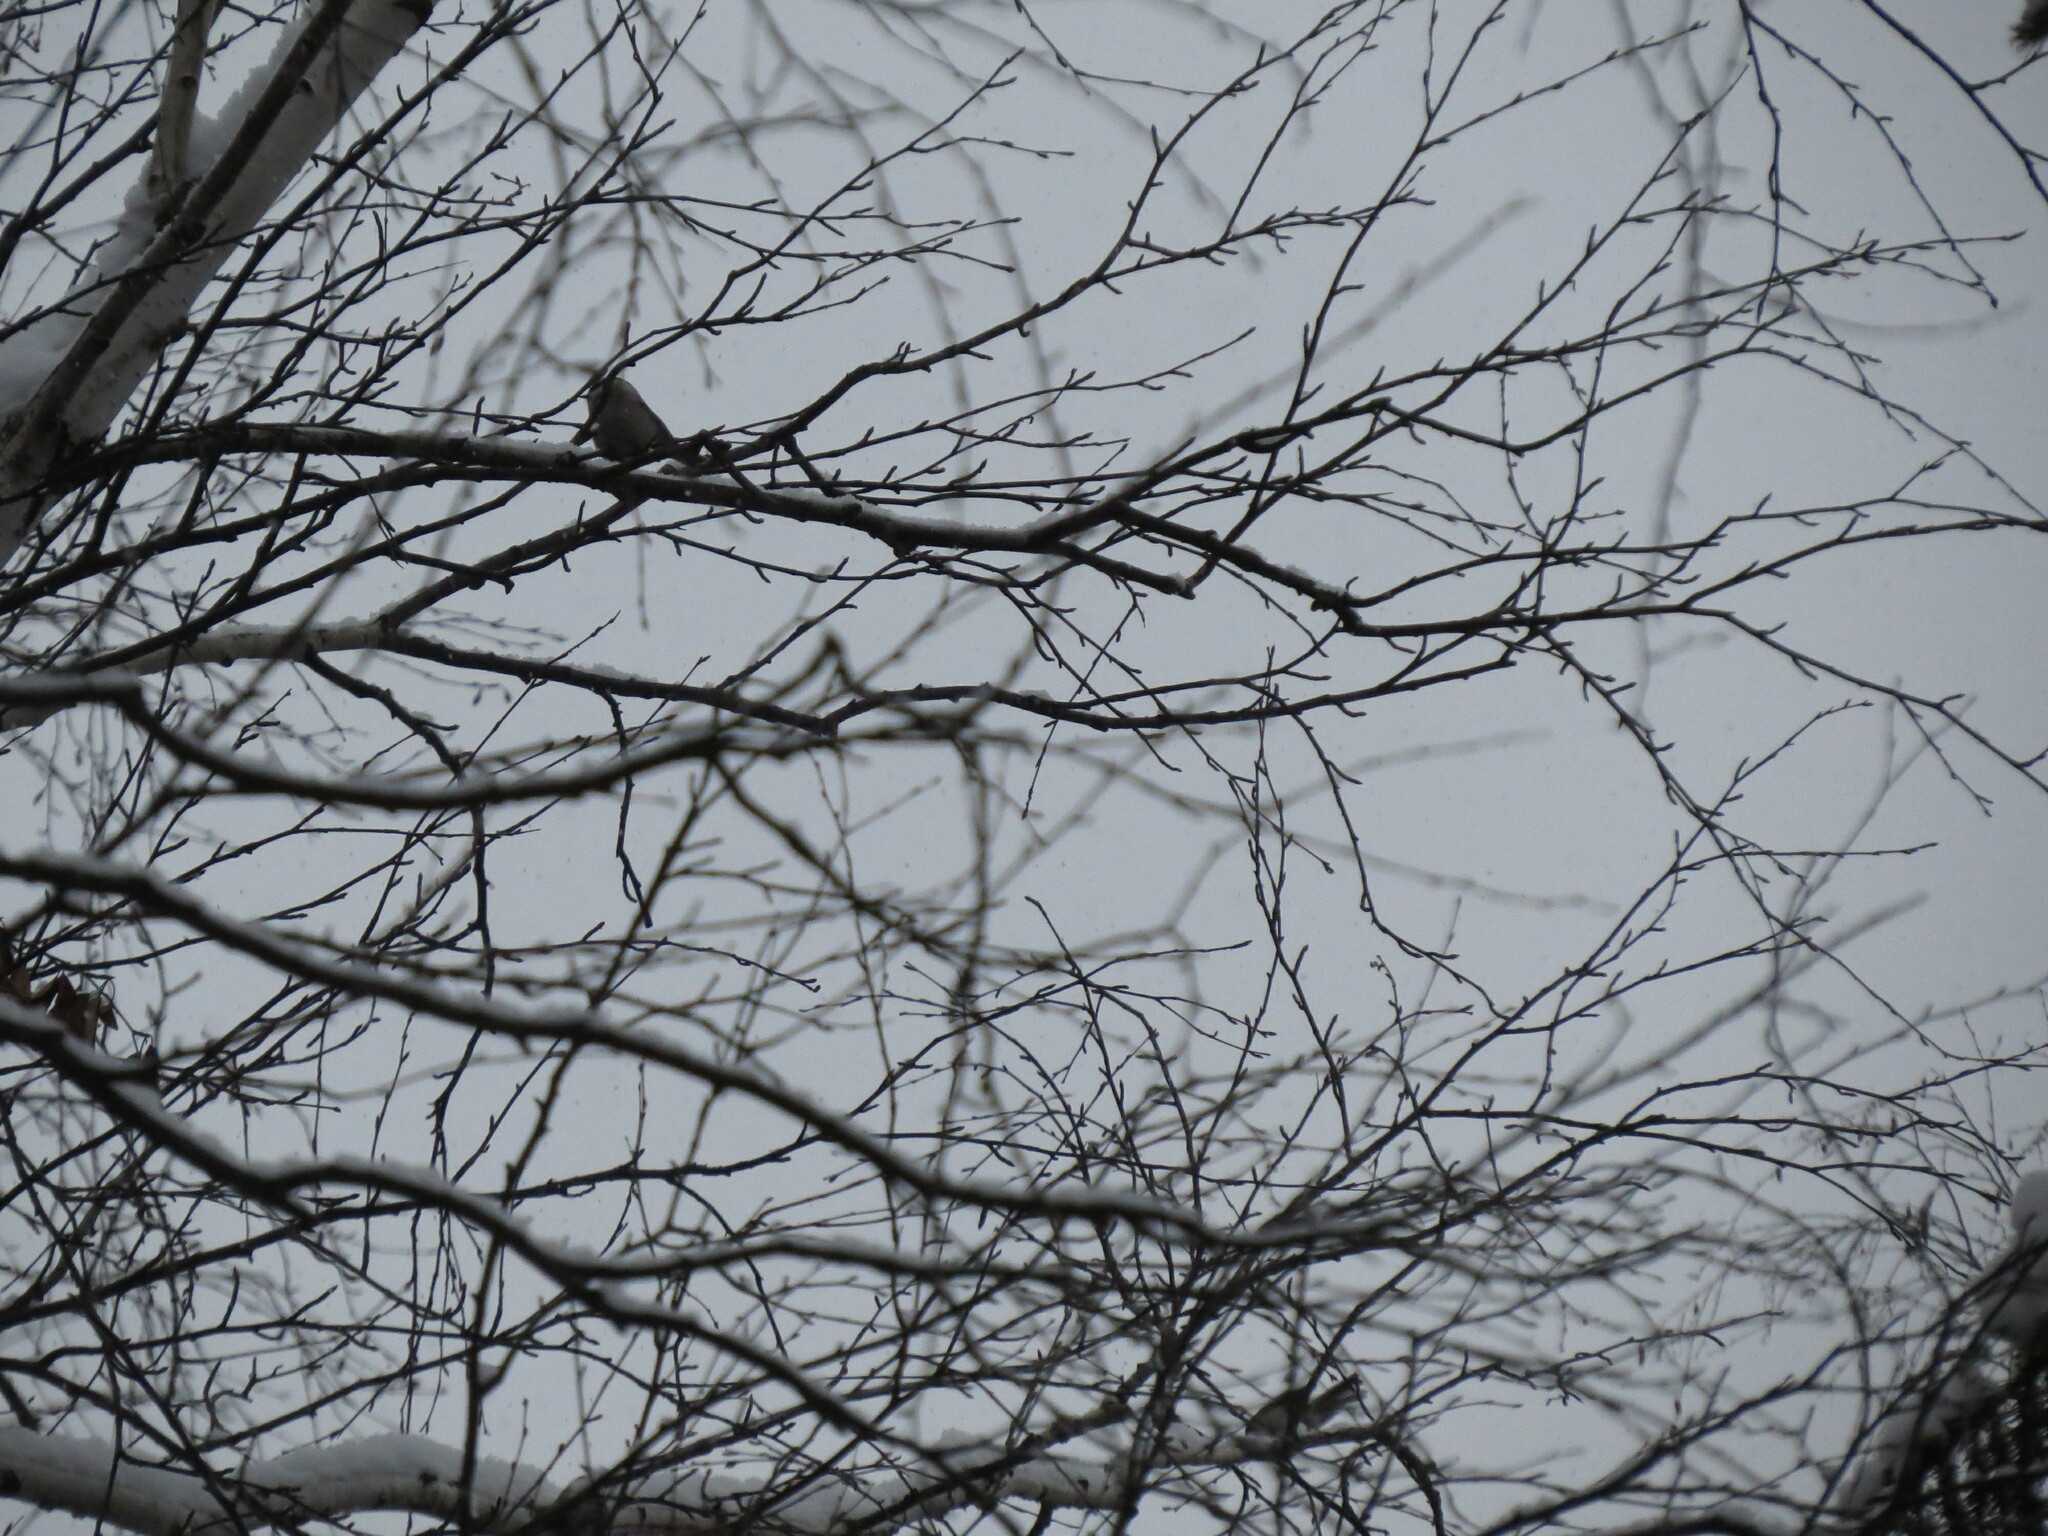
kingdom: Animalia
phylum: Chordata
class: Aves
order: Passeriformes
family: Paridae
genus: Poecile
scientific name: Poecile montanus
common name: Willow tit
